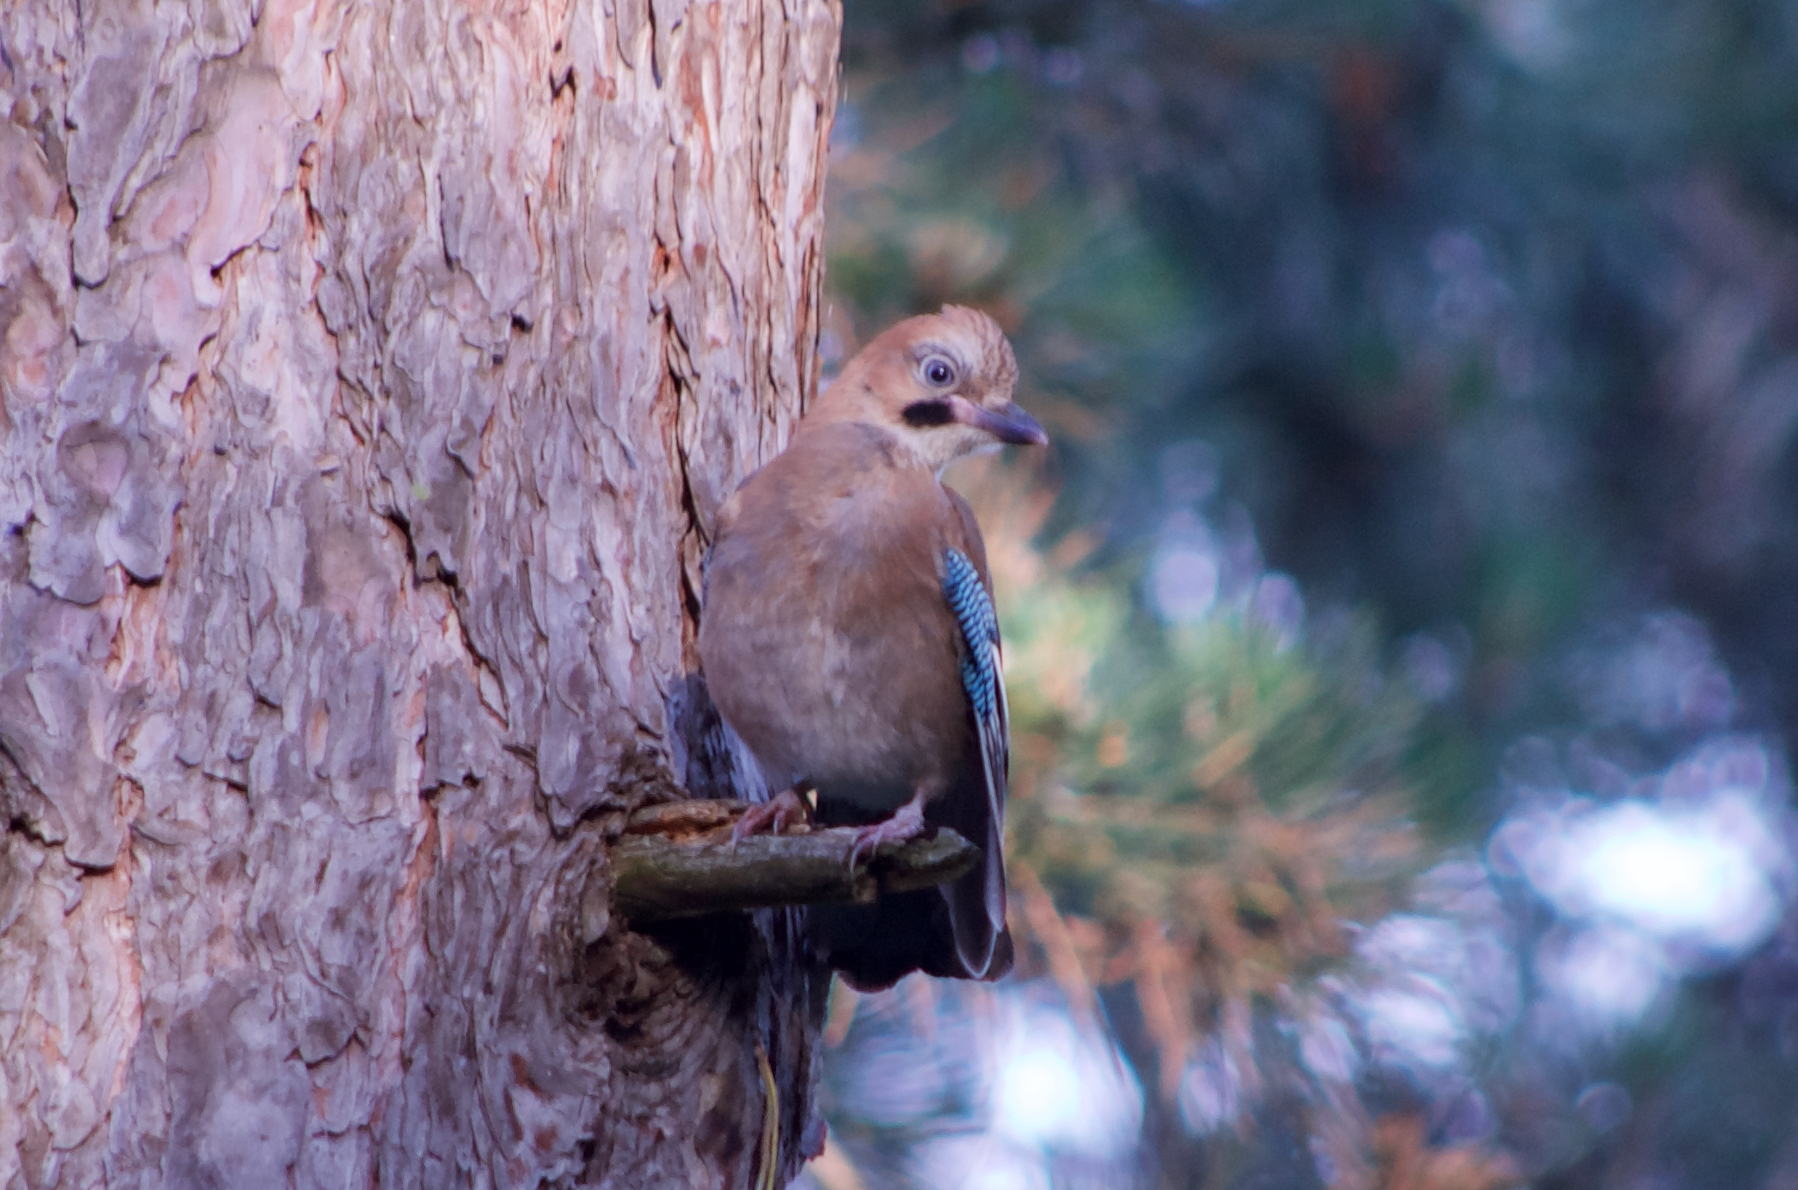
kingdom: Animalia
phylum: Chordata
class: Aves
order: Passeriformes
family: Corvidae
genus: Garrulus
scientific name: Garrulus glandarius
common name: Eurasian jay
